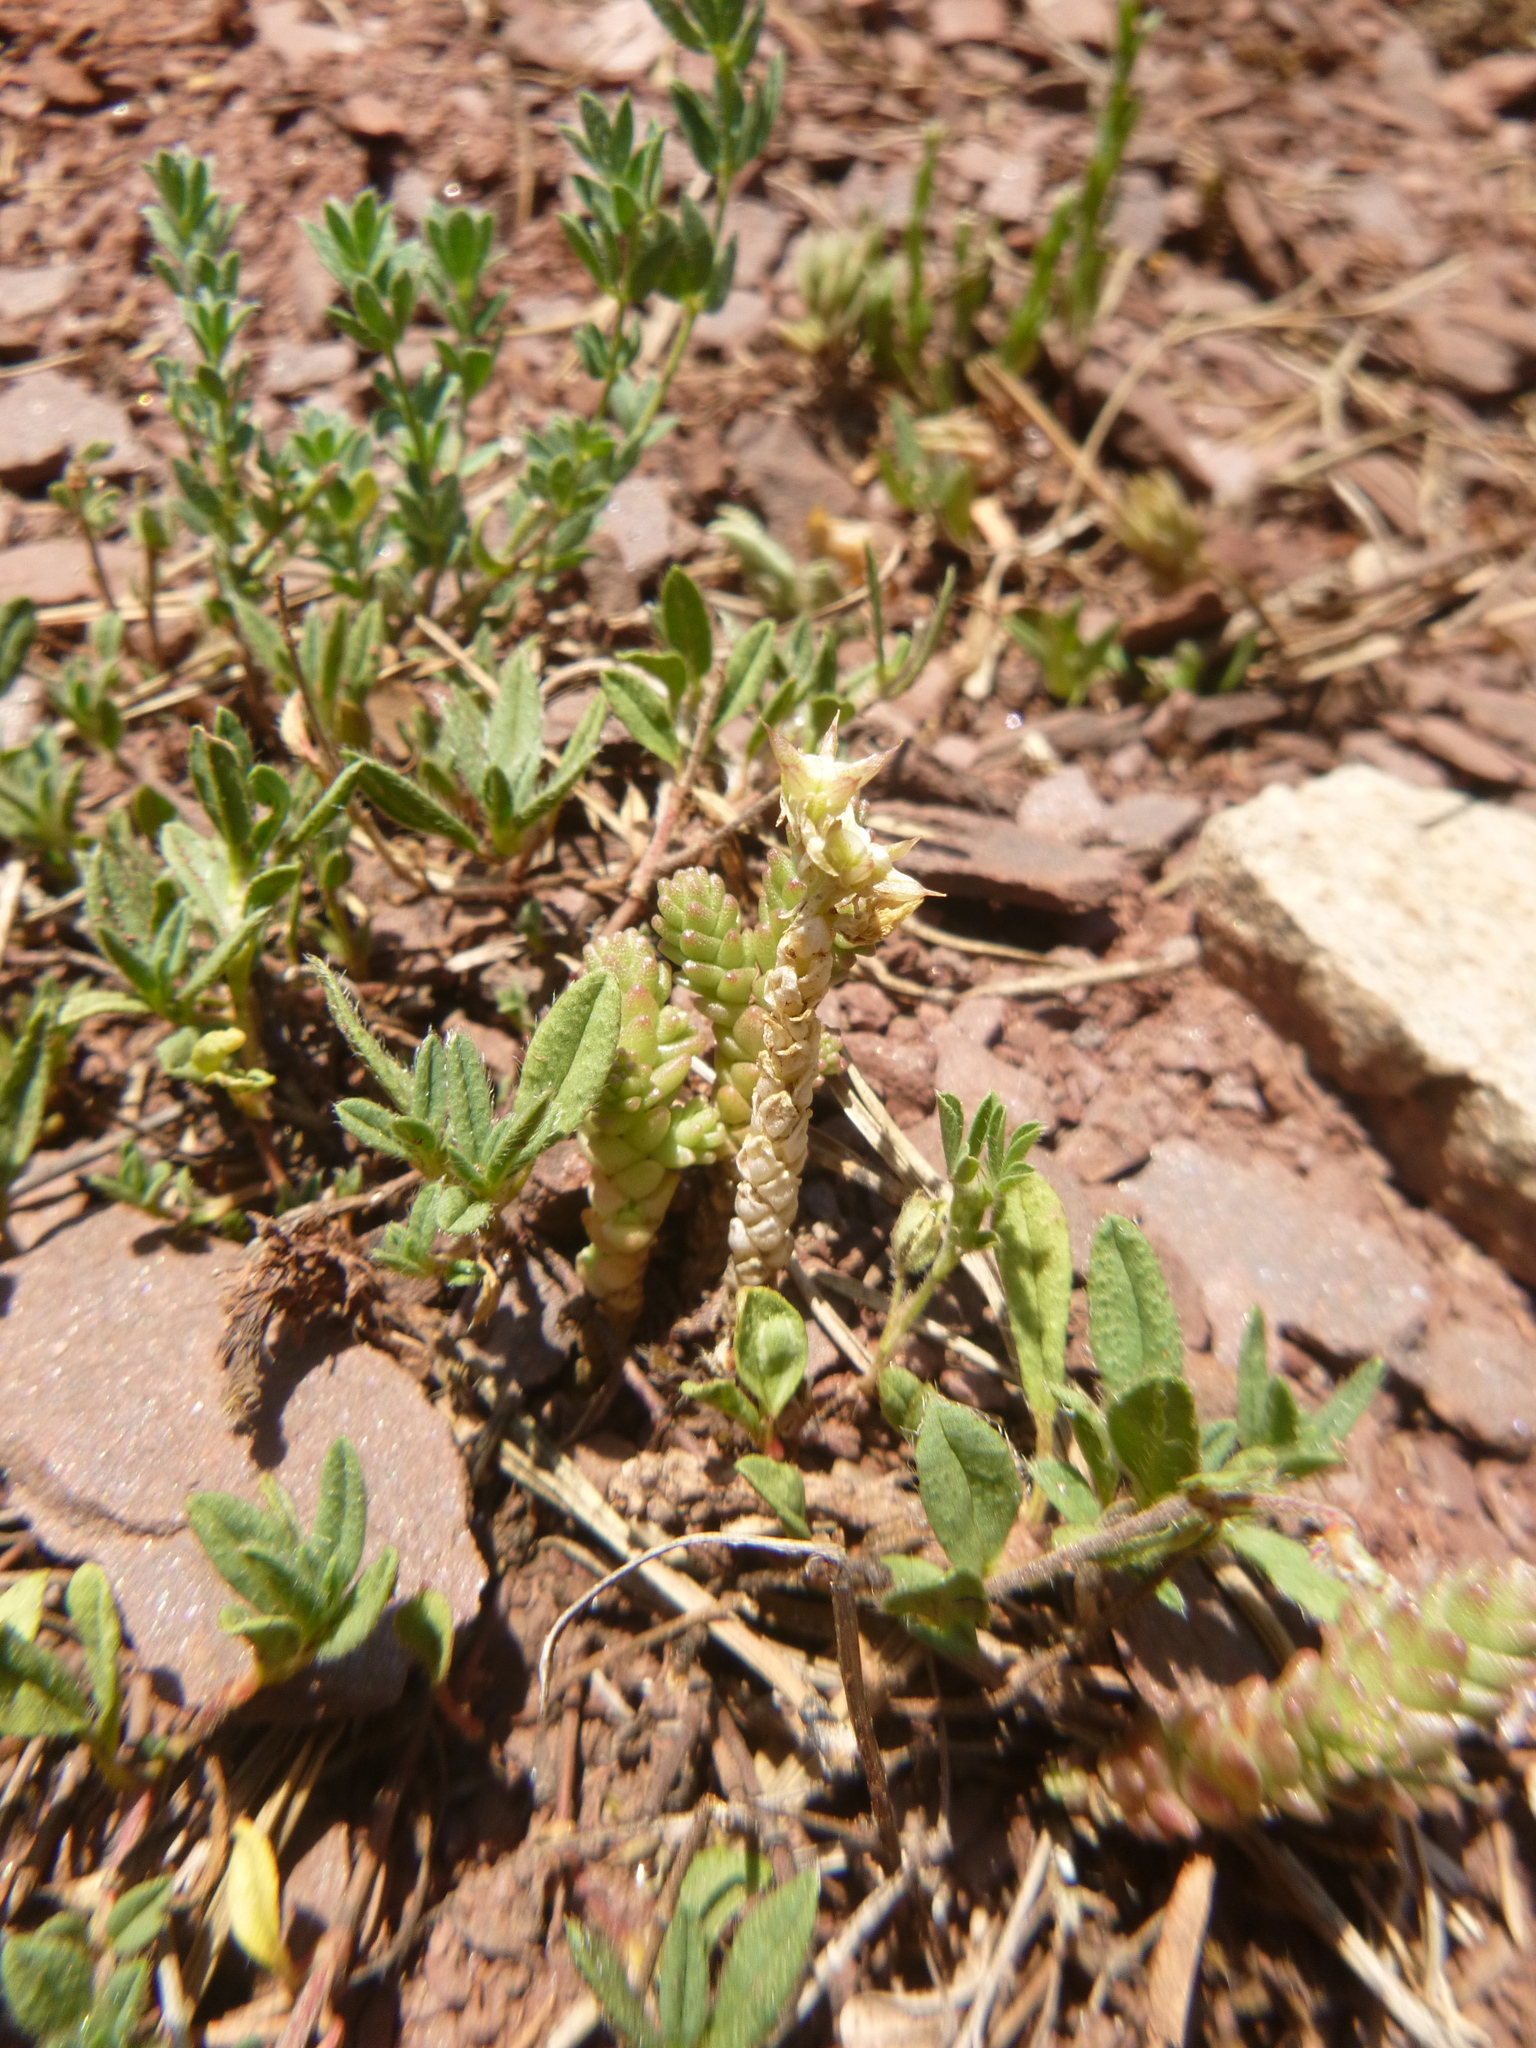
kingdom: Plantae
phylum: Tracheophyta
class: Magnoliopsida
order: Saxifragales
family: Crassulaceae
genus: Sedum
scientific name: Sedum acre
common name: Biting stonecrop
